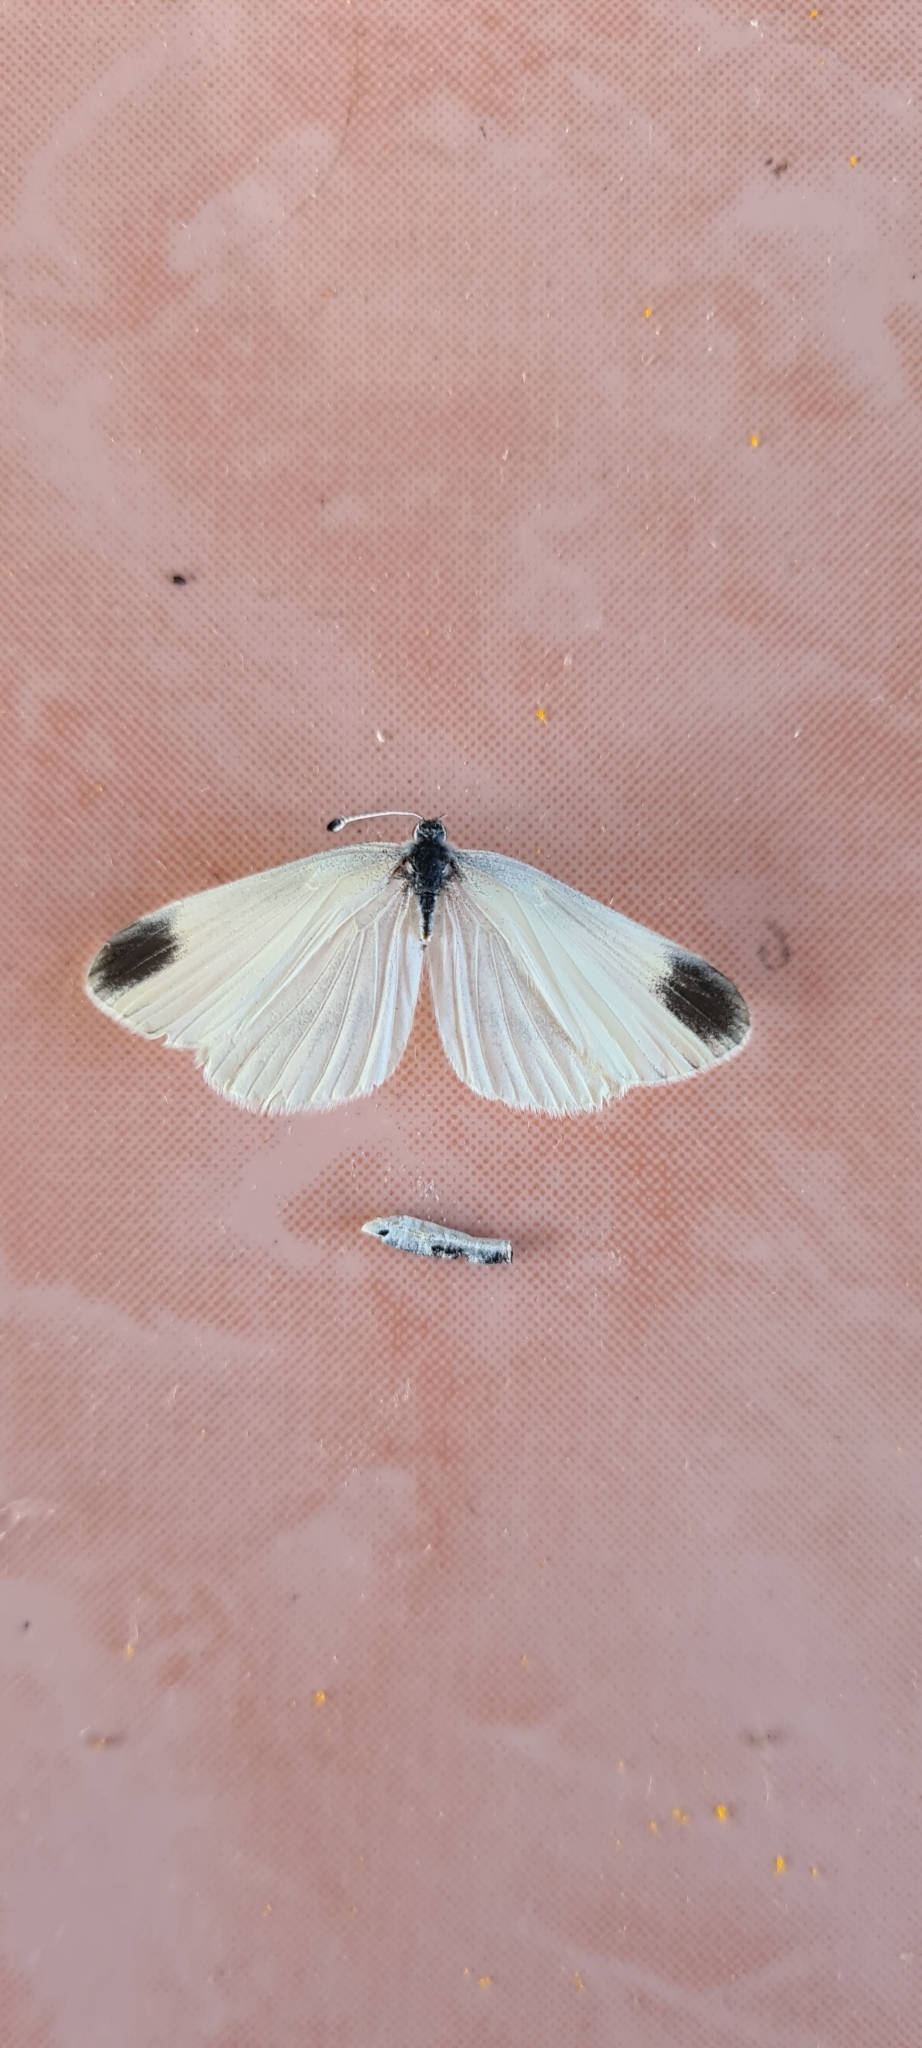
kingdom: Animalia
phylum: Arthropoda
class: Insecta
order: Lepidoptera
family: Pieridae
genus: Leptidea
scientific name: Leptidea
